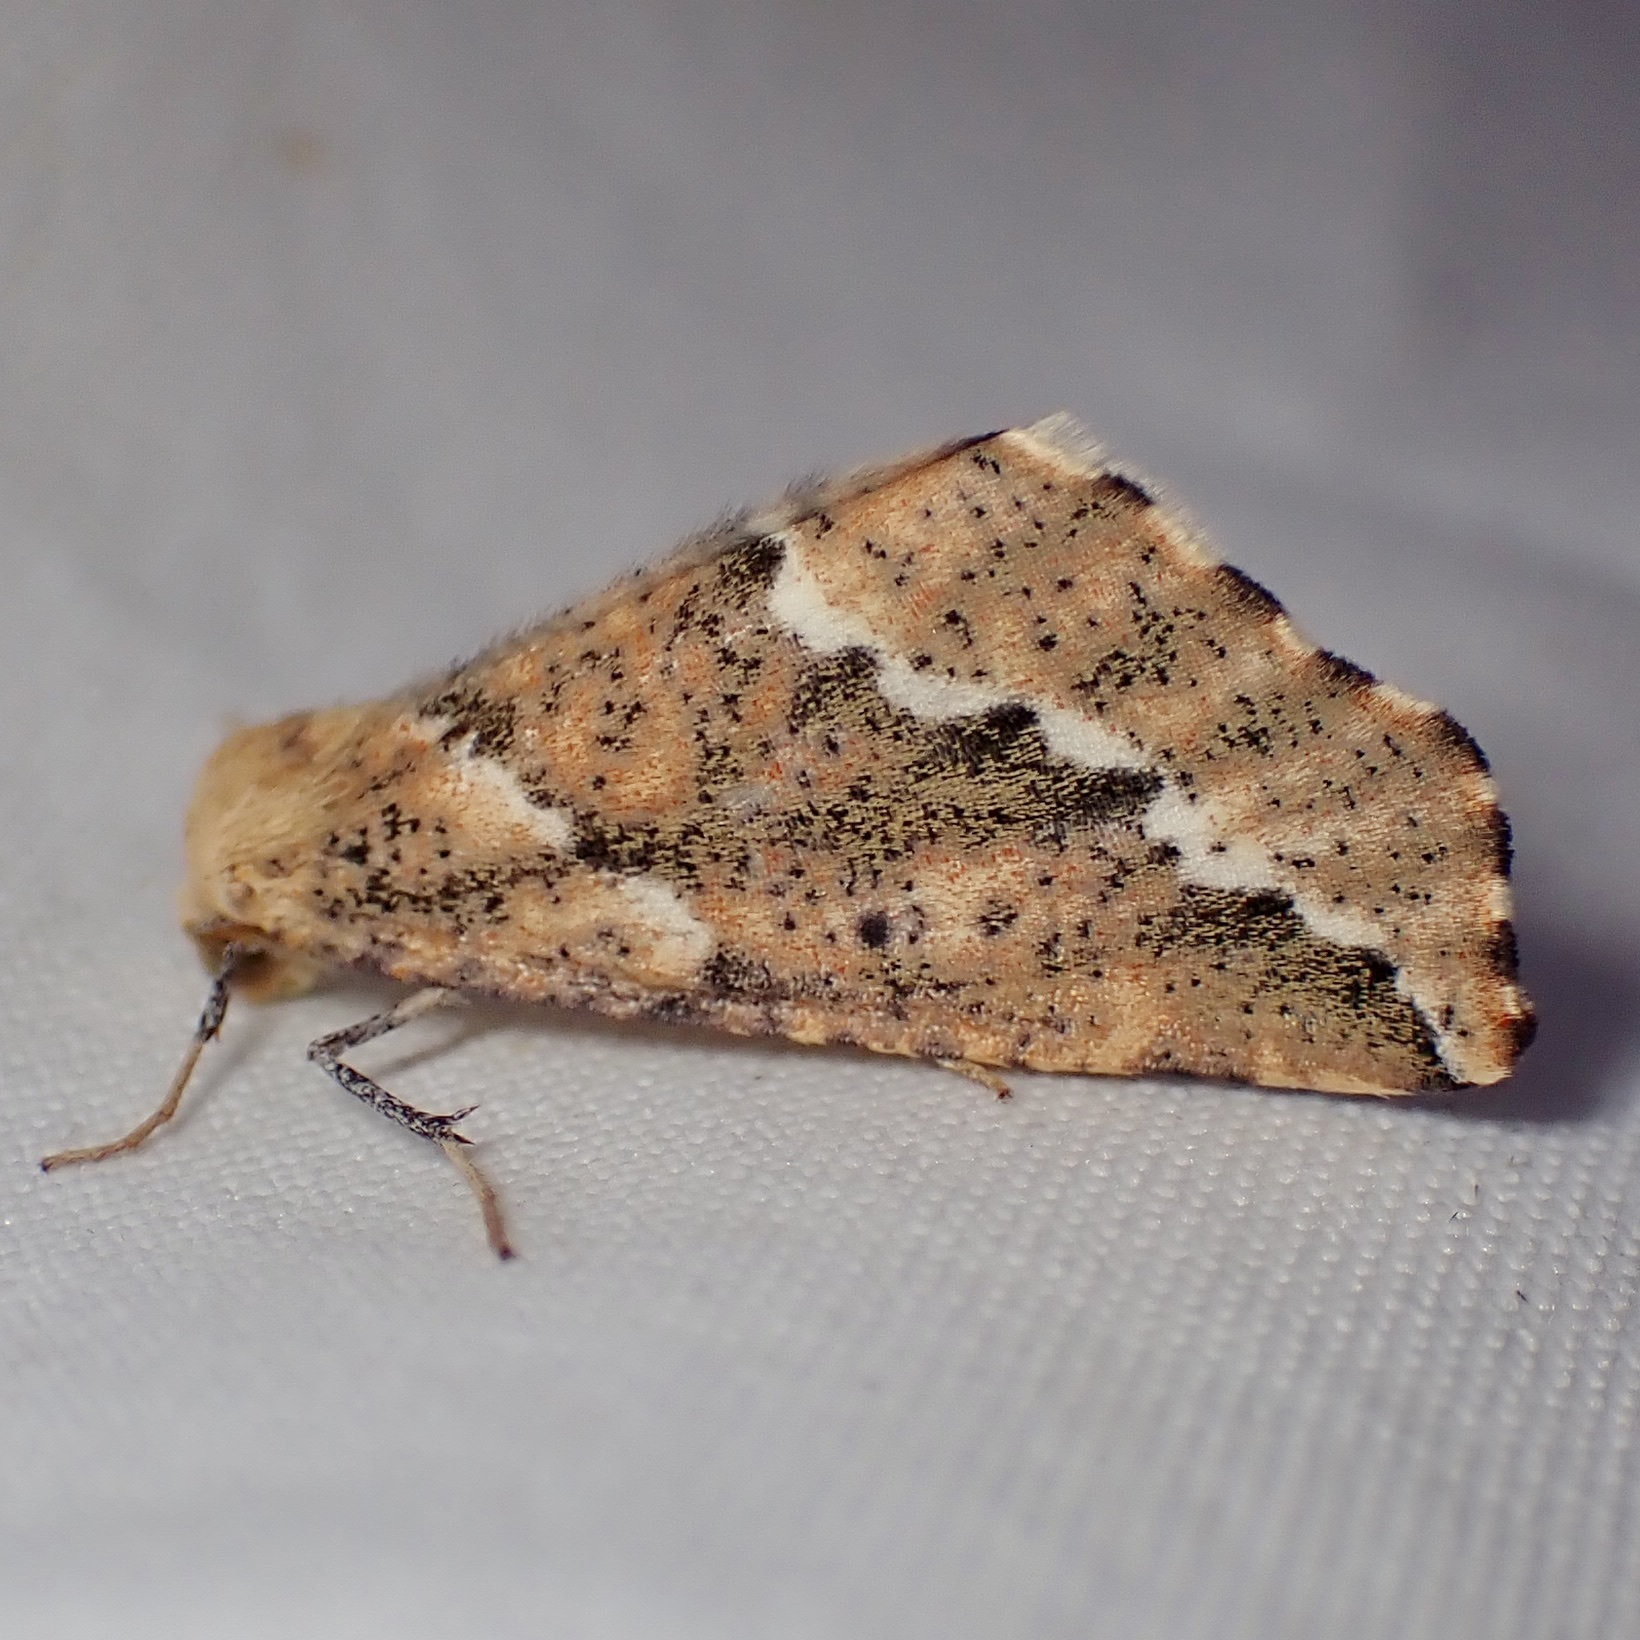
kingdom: Animalia
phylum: Arthropoda
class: Insecta
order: Lepidoptera
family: Geometridae
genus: Sicya
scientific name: Sicya morsicaria
